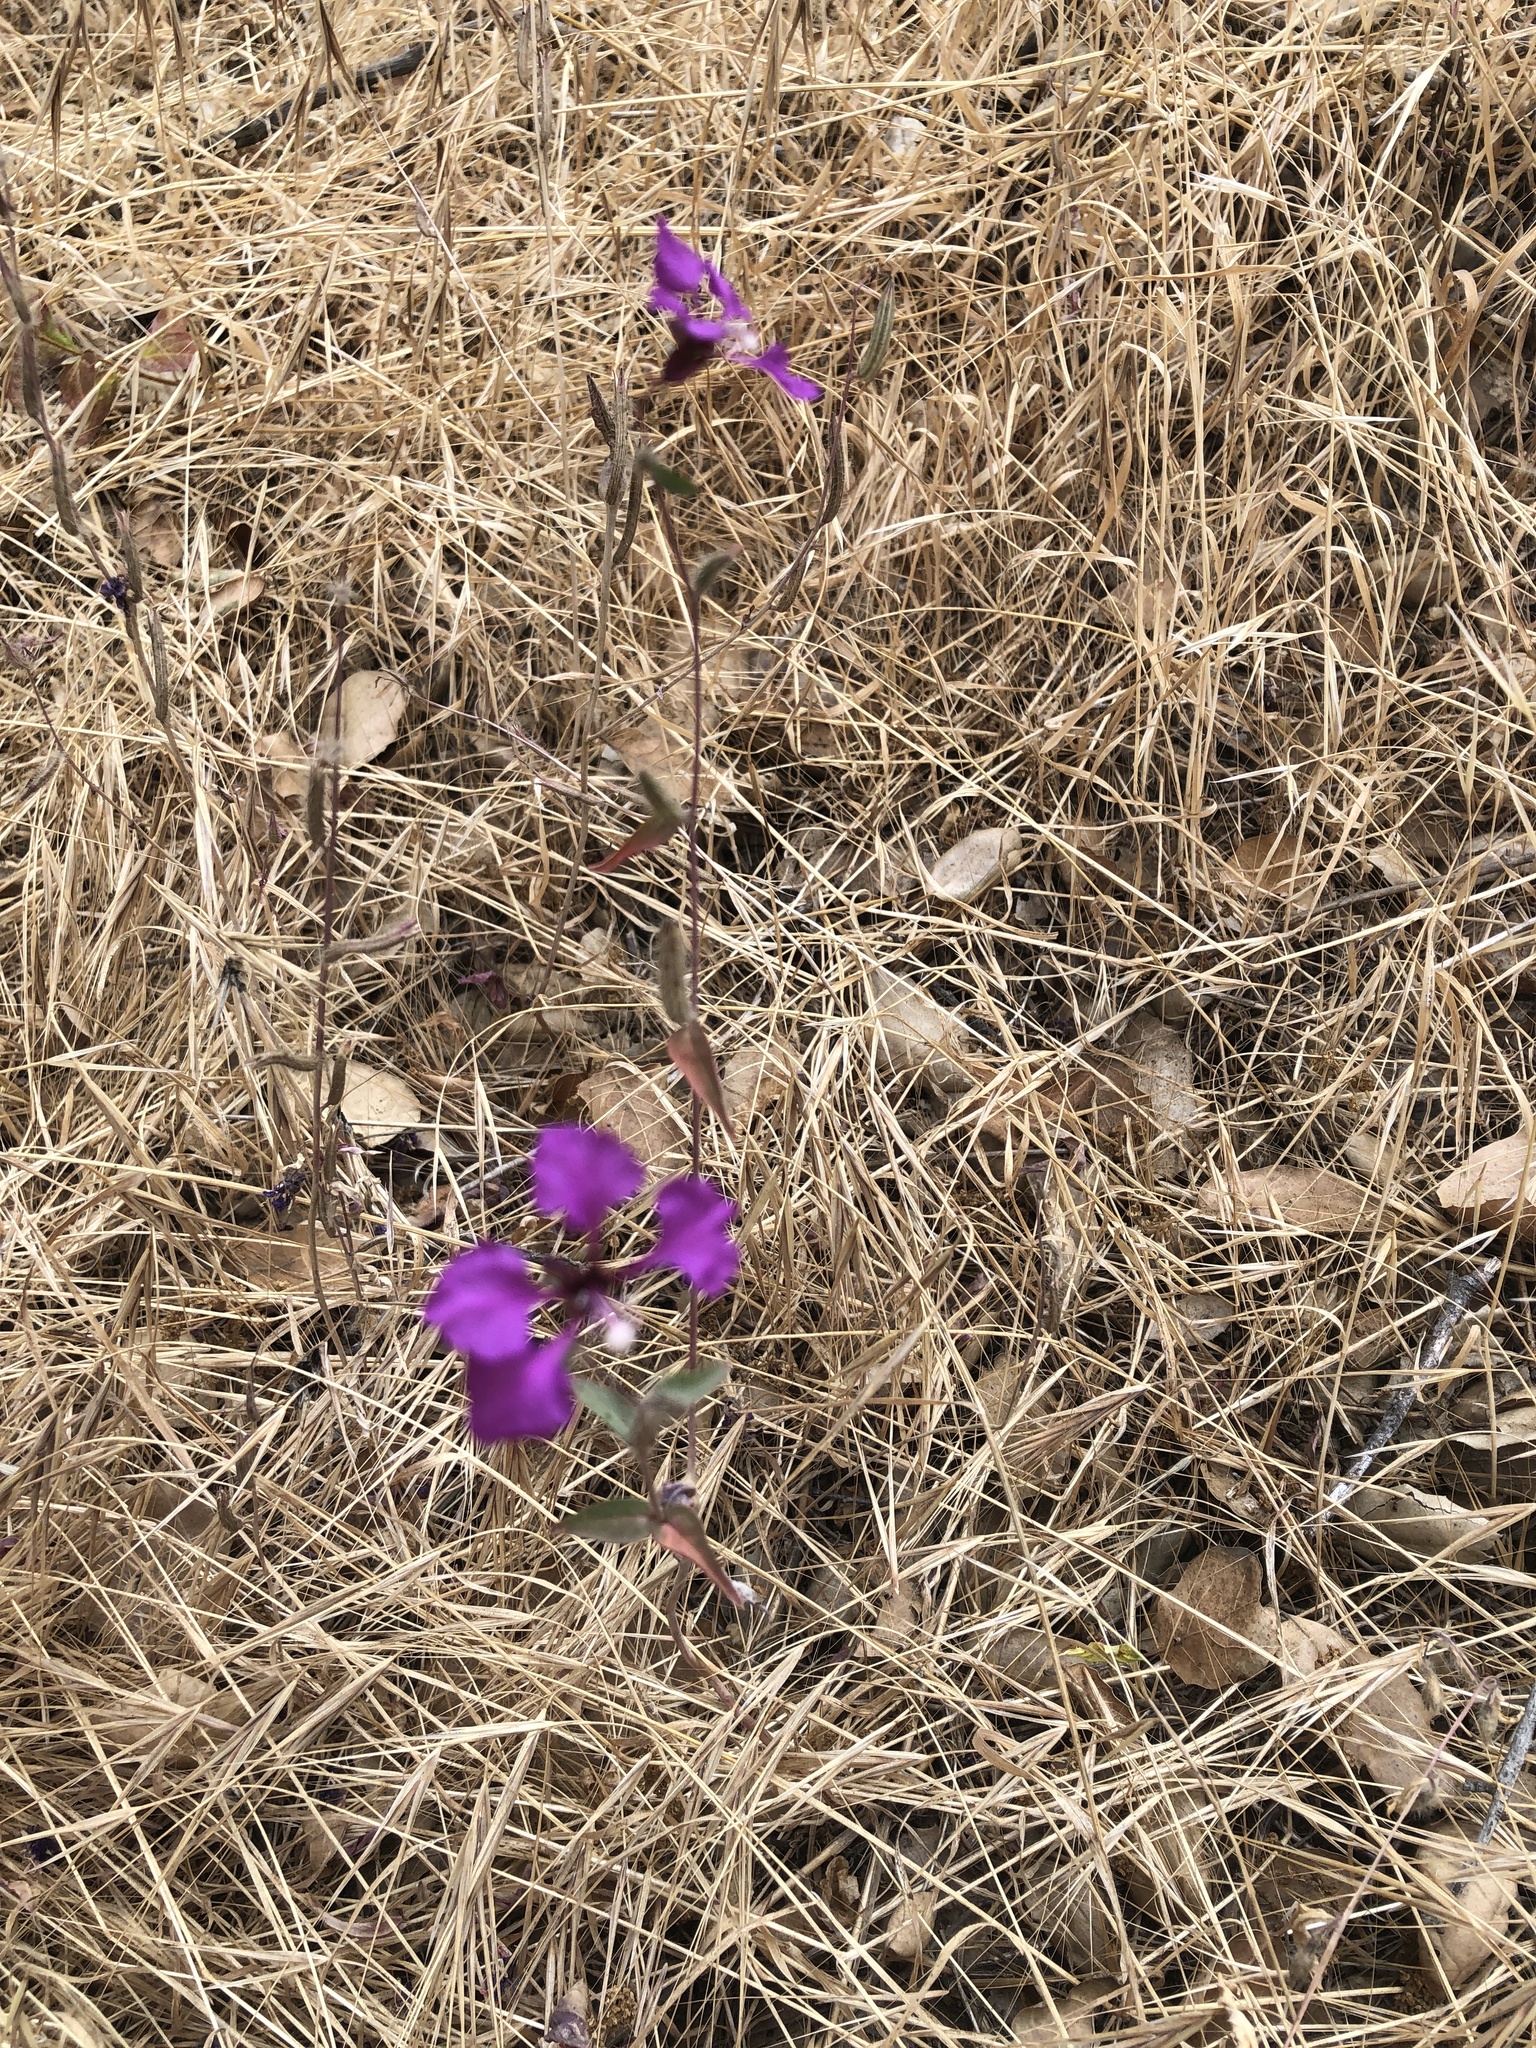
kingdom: Plantae
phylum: Tracheophyta
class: Magnoliopsida
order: Myrtales
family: Onagraceae
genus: Clarkia
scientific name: Clarkia unguiculata
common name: Clarkia
